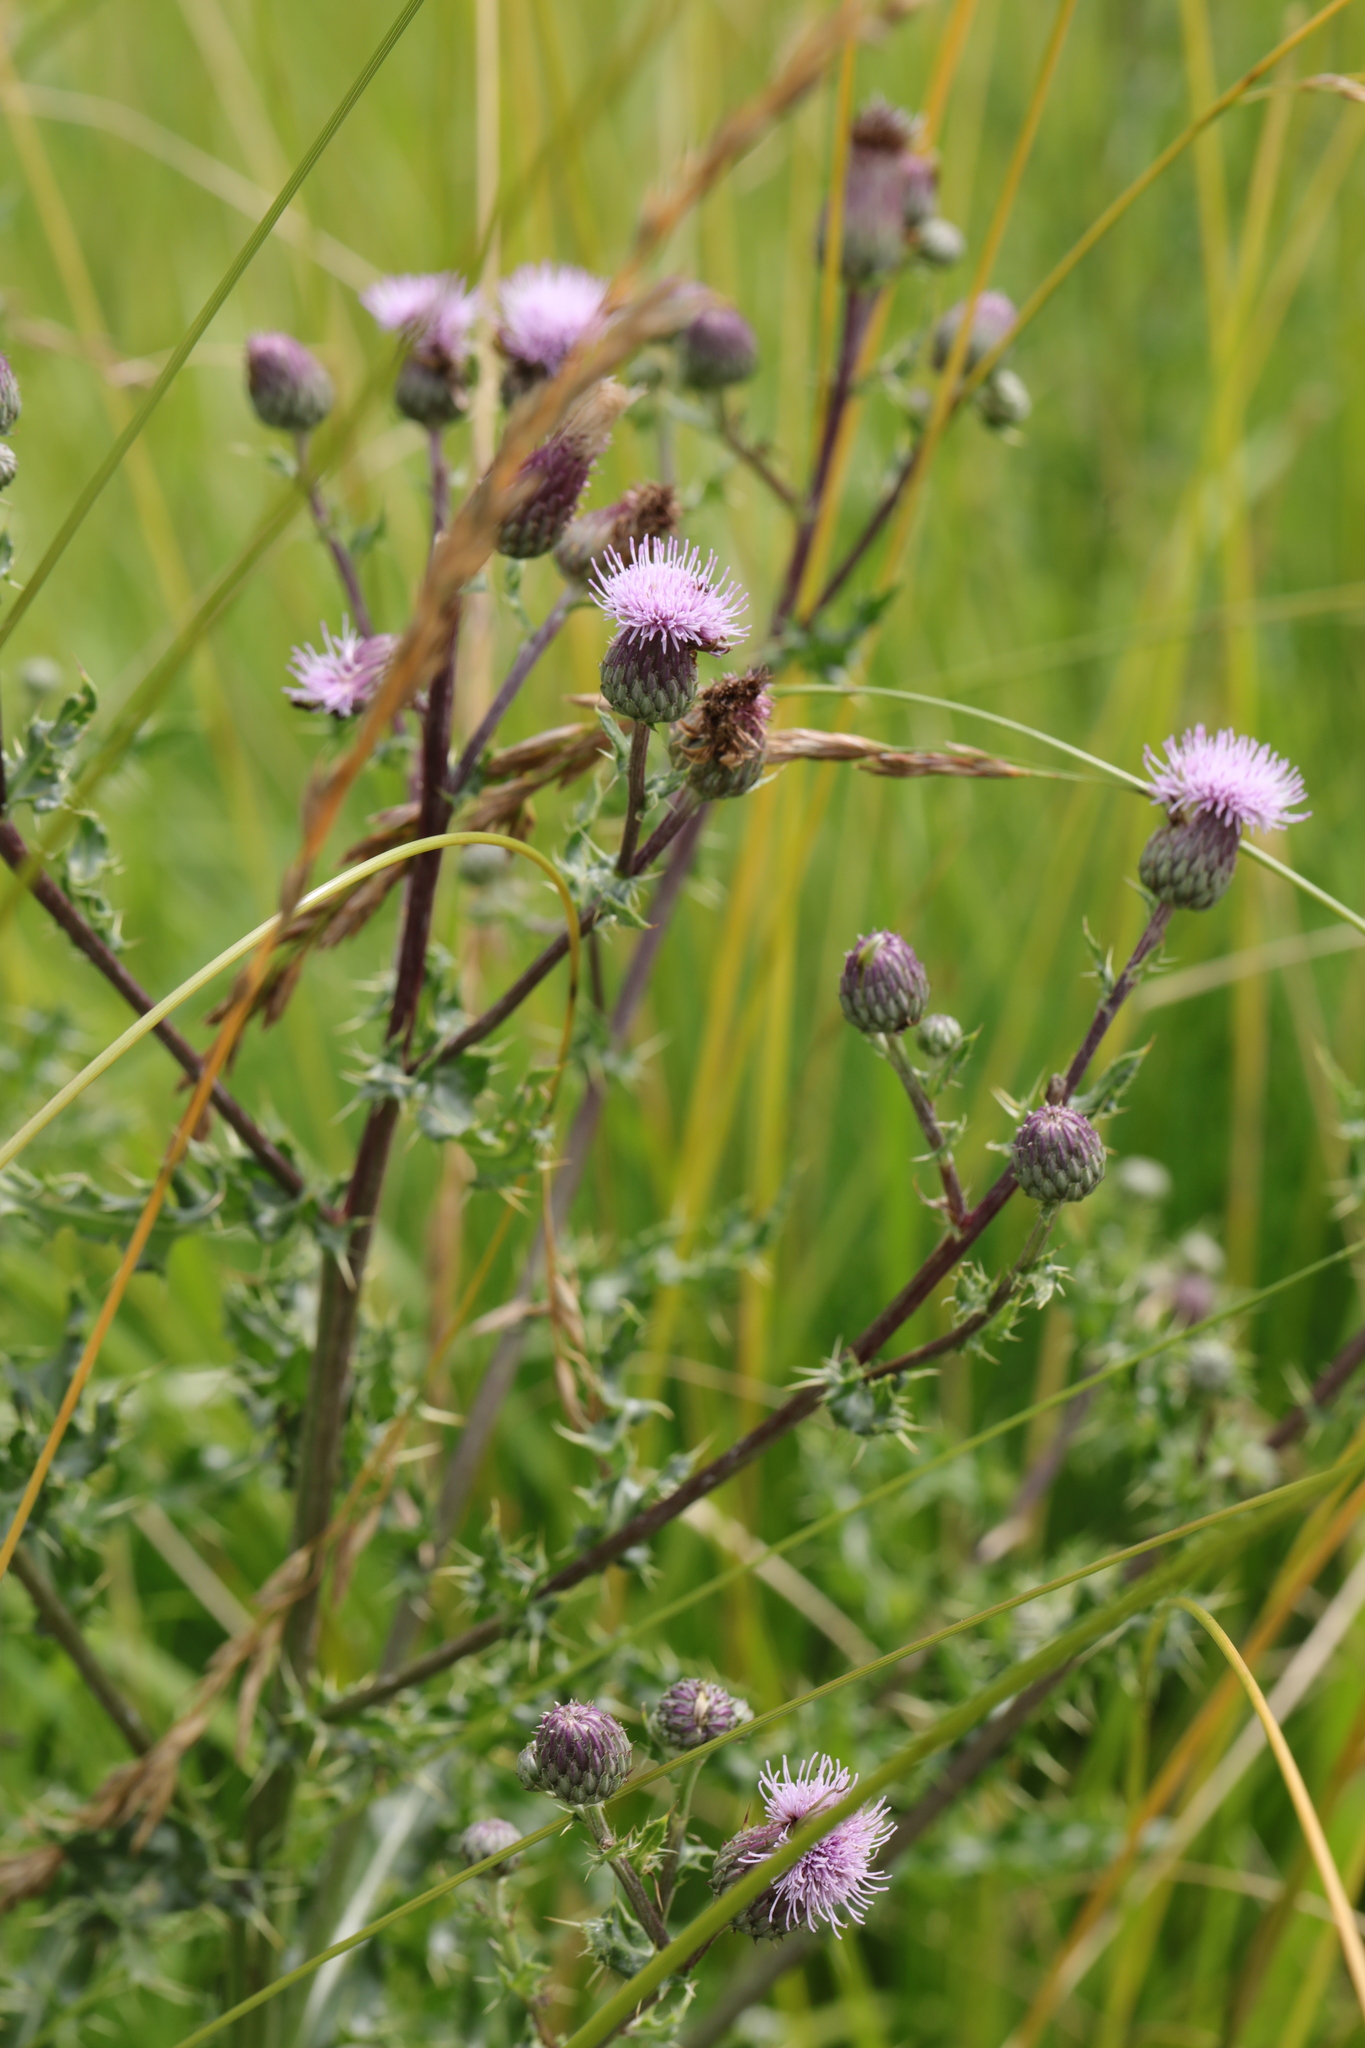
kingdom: Plantae
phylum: Tracheophyta
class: Magnoliopsida
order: Asterales
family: Asteraceae
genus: Cirsium
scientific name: Cirsium arvense
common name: Creeping thistle
